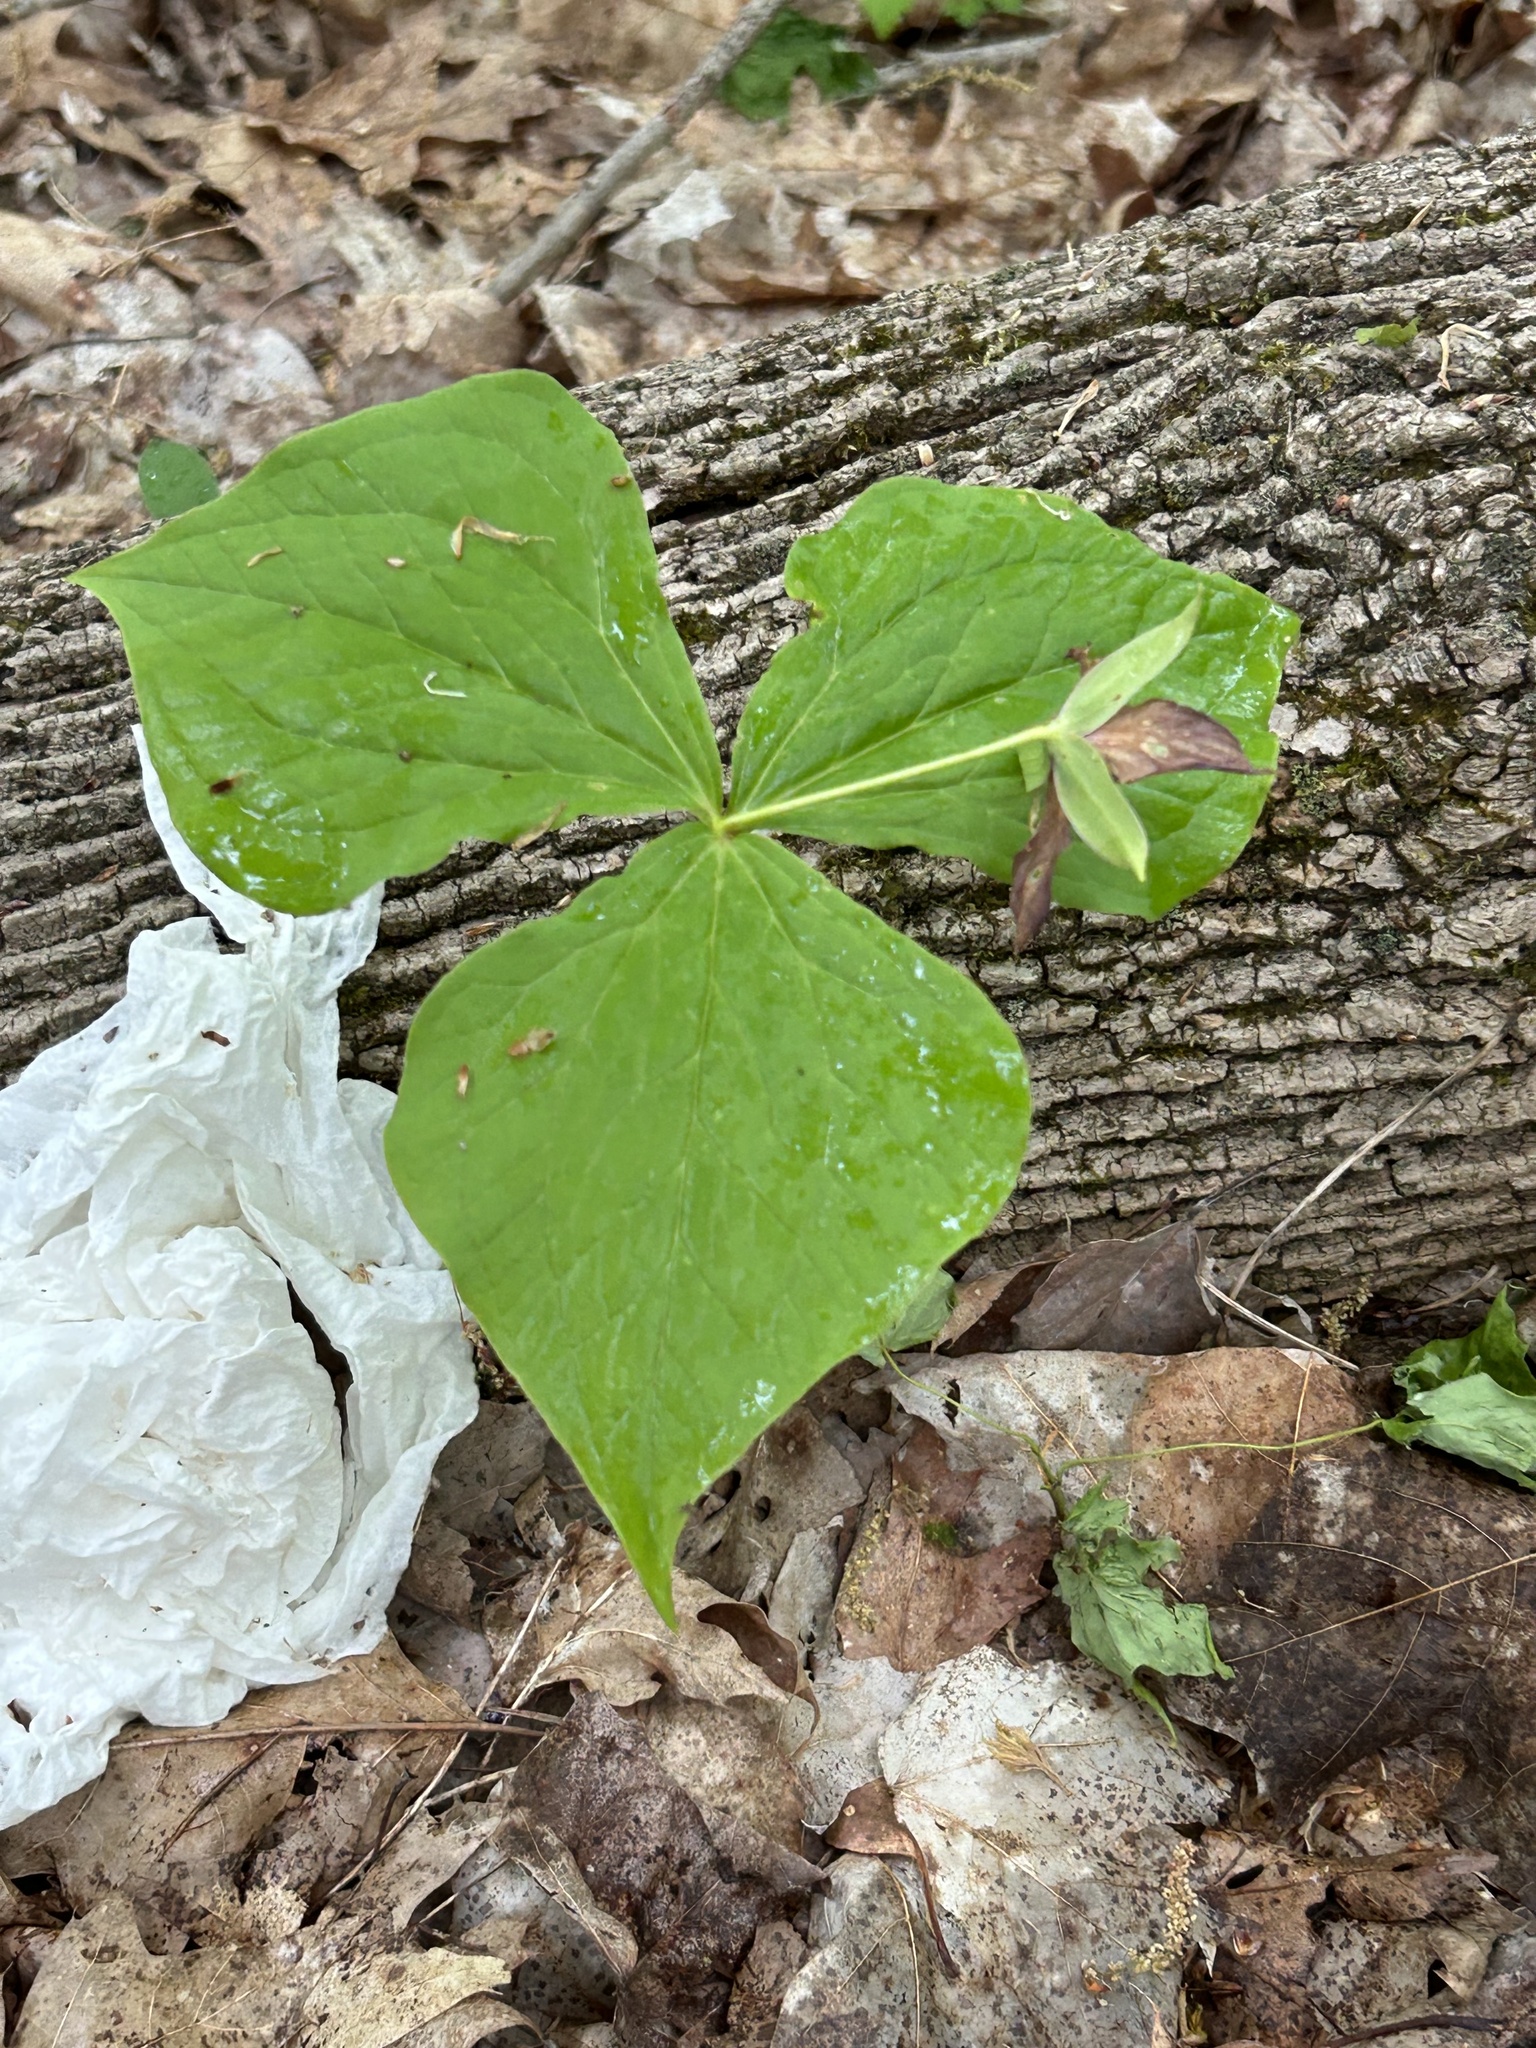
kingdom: Plantae
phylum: Tracheophyta
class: Liliopsida
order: Liliales
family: Melanthiaceae
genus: Trillium
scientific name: Trillium erectum
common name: Purple trillium
